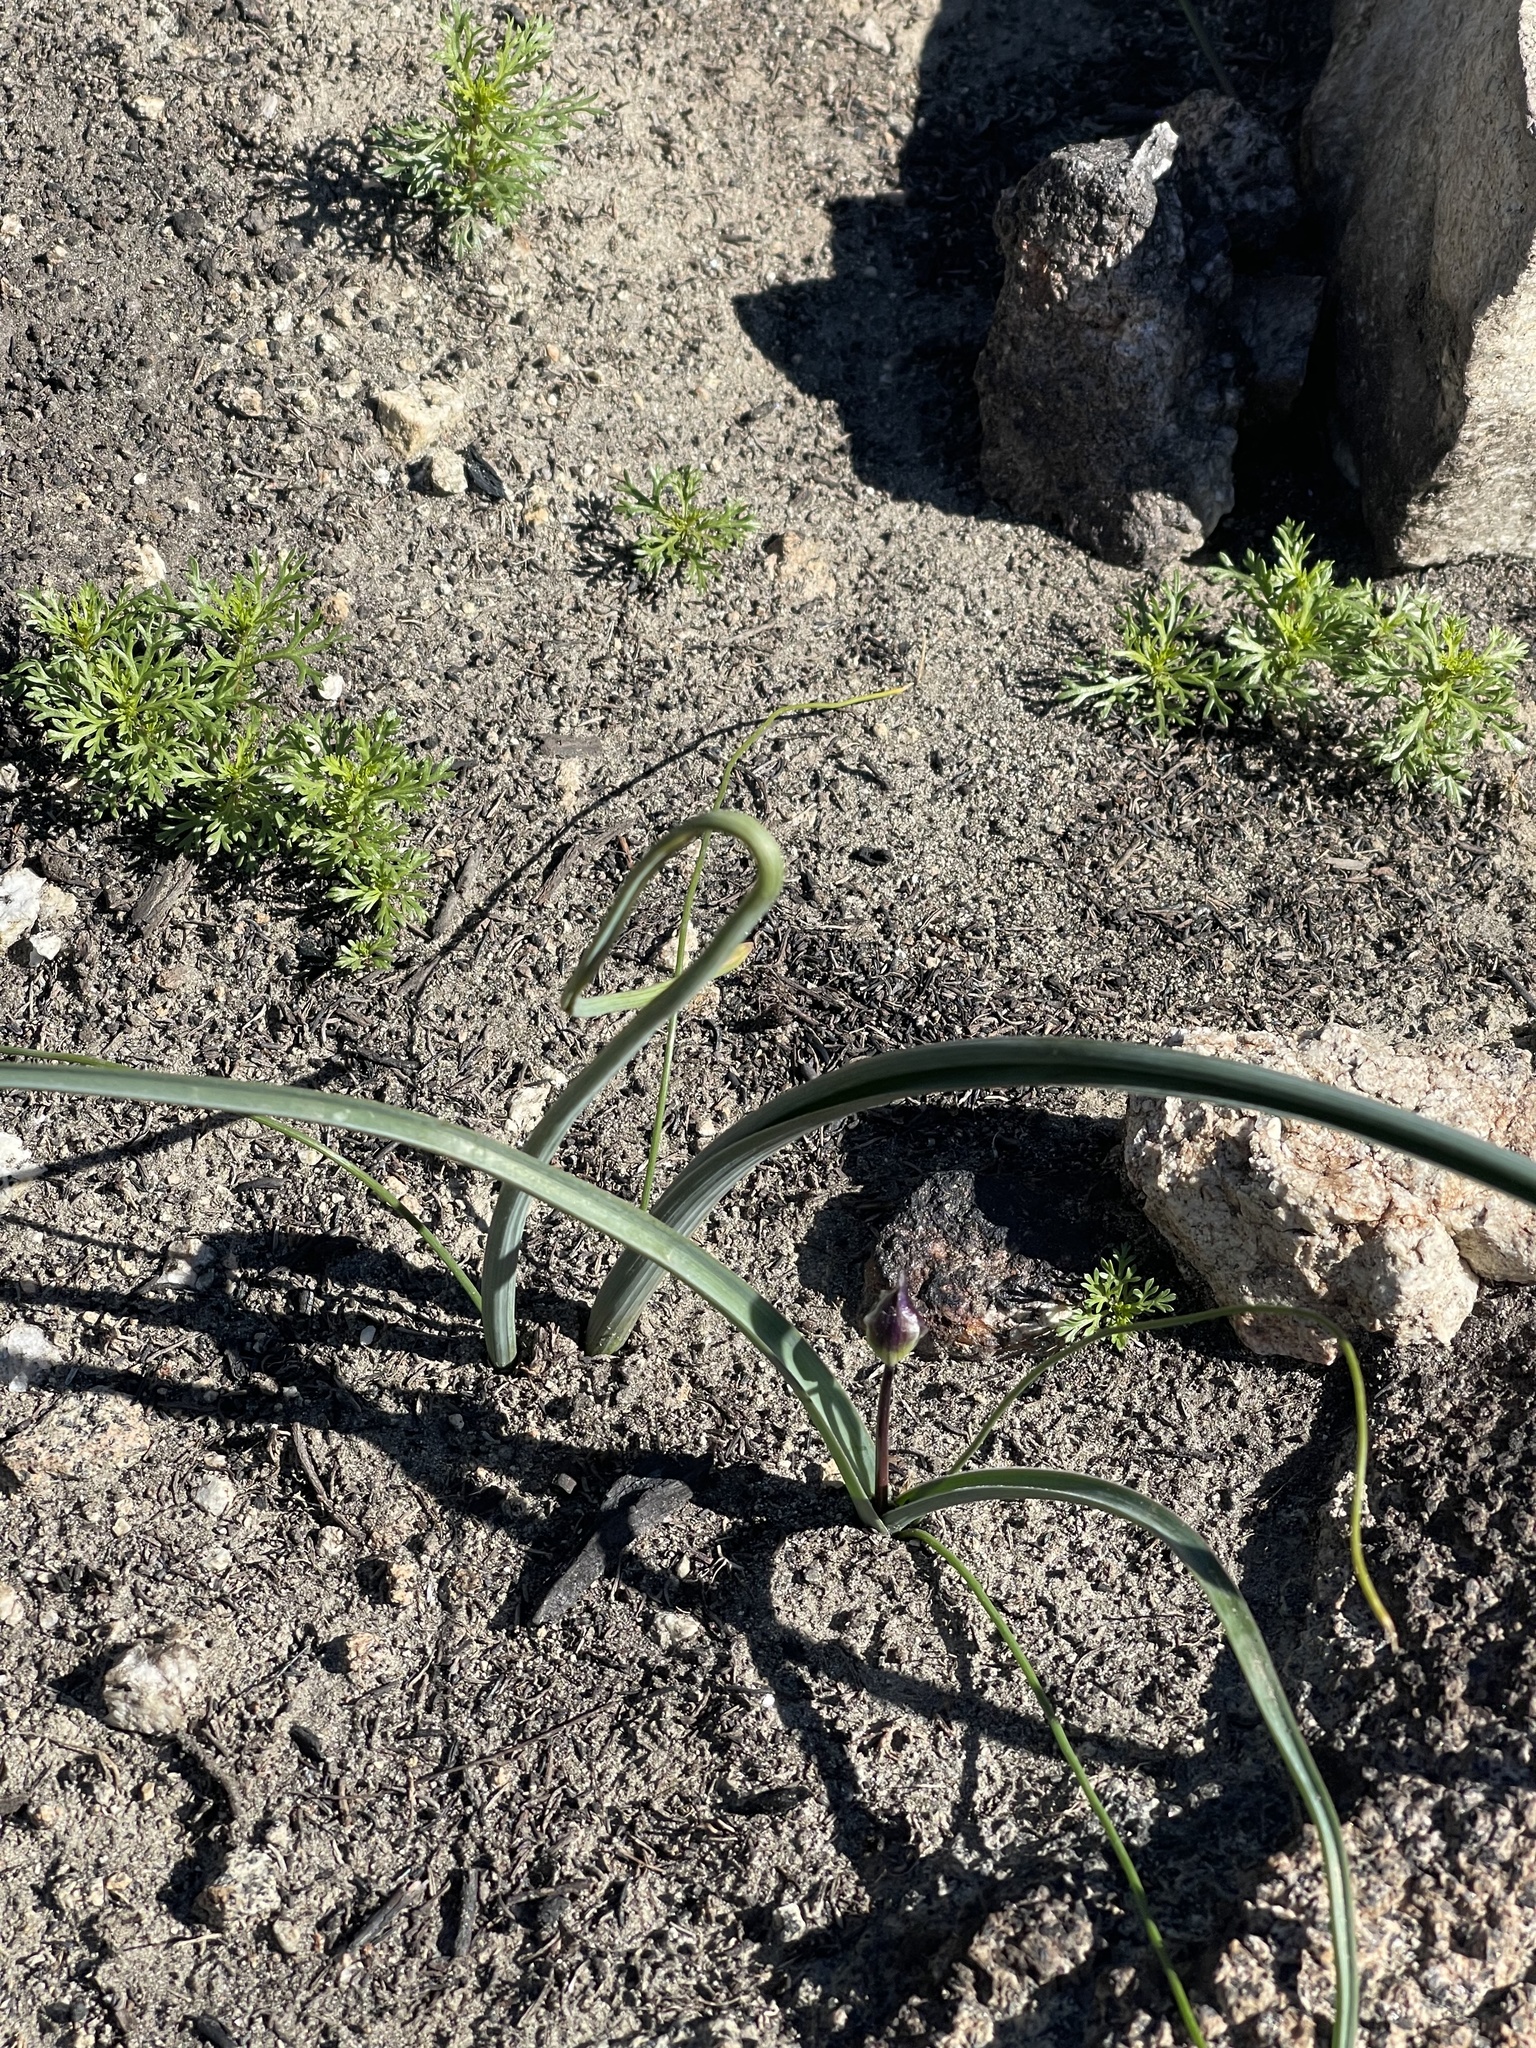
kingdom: Plantae
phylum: Tracheophyta
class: Liliopsida
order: Asparagales
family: Asparagaceae
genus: Dipterostemon
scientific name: Dipterostemon capitatus
